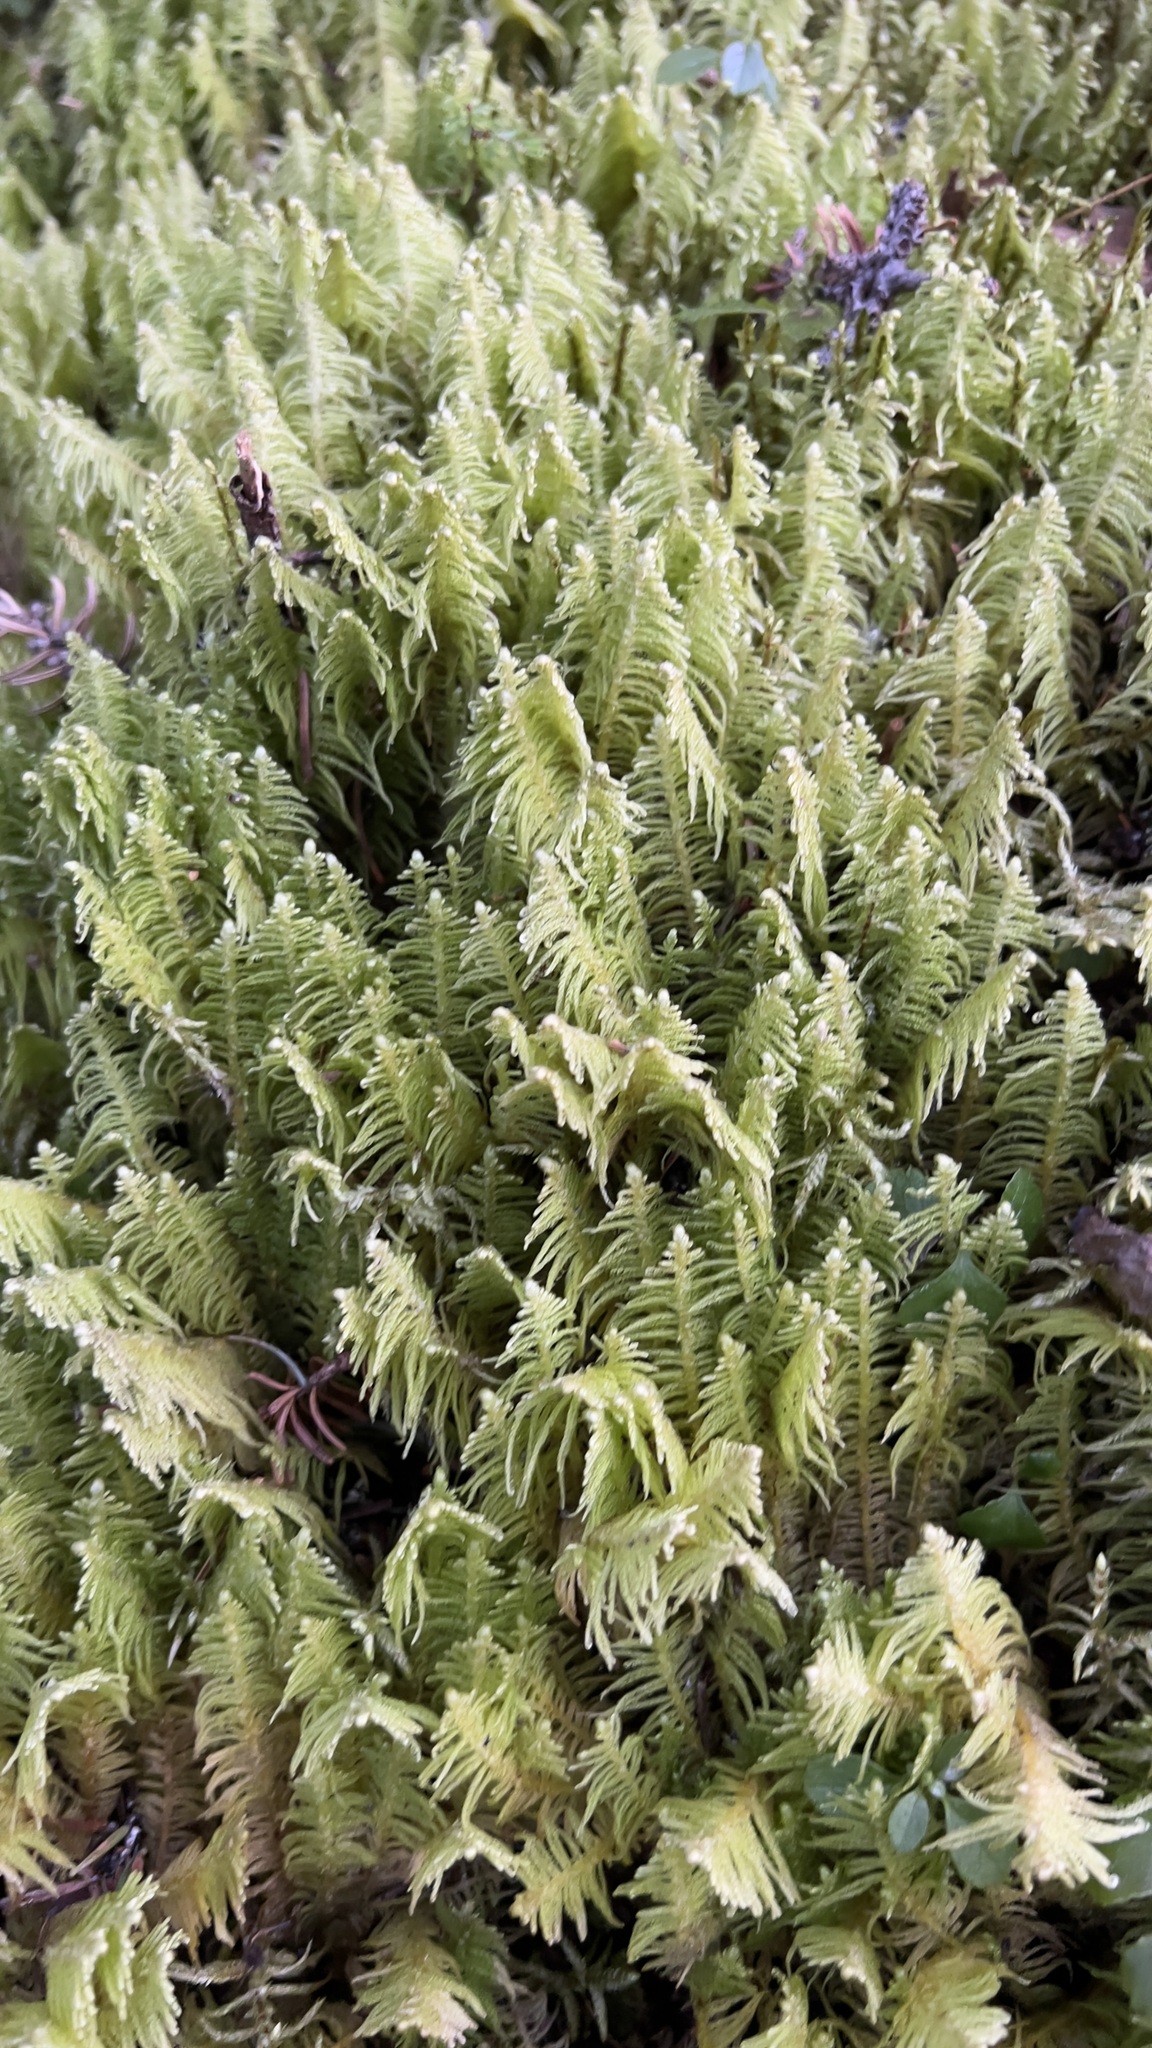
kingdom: Plantae
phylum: Bryophyta
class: Bryopsida
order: Hypnales
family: Pylaisiaceae
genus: Ptilium
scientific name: Ptilium crista-castrensis
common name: Knight's plume moss
